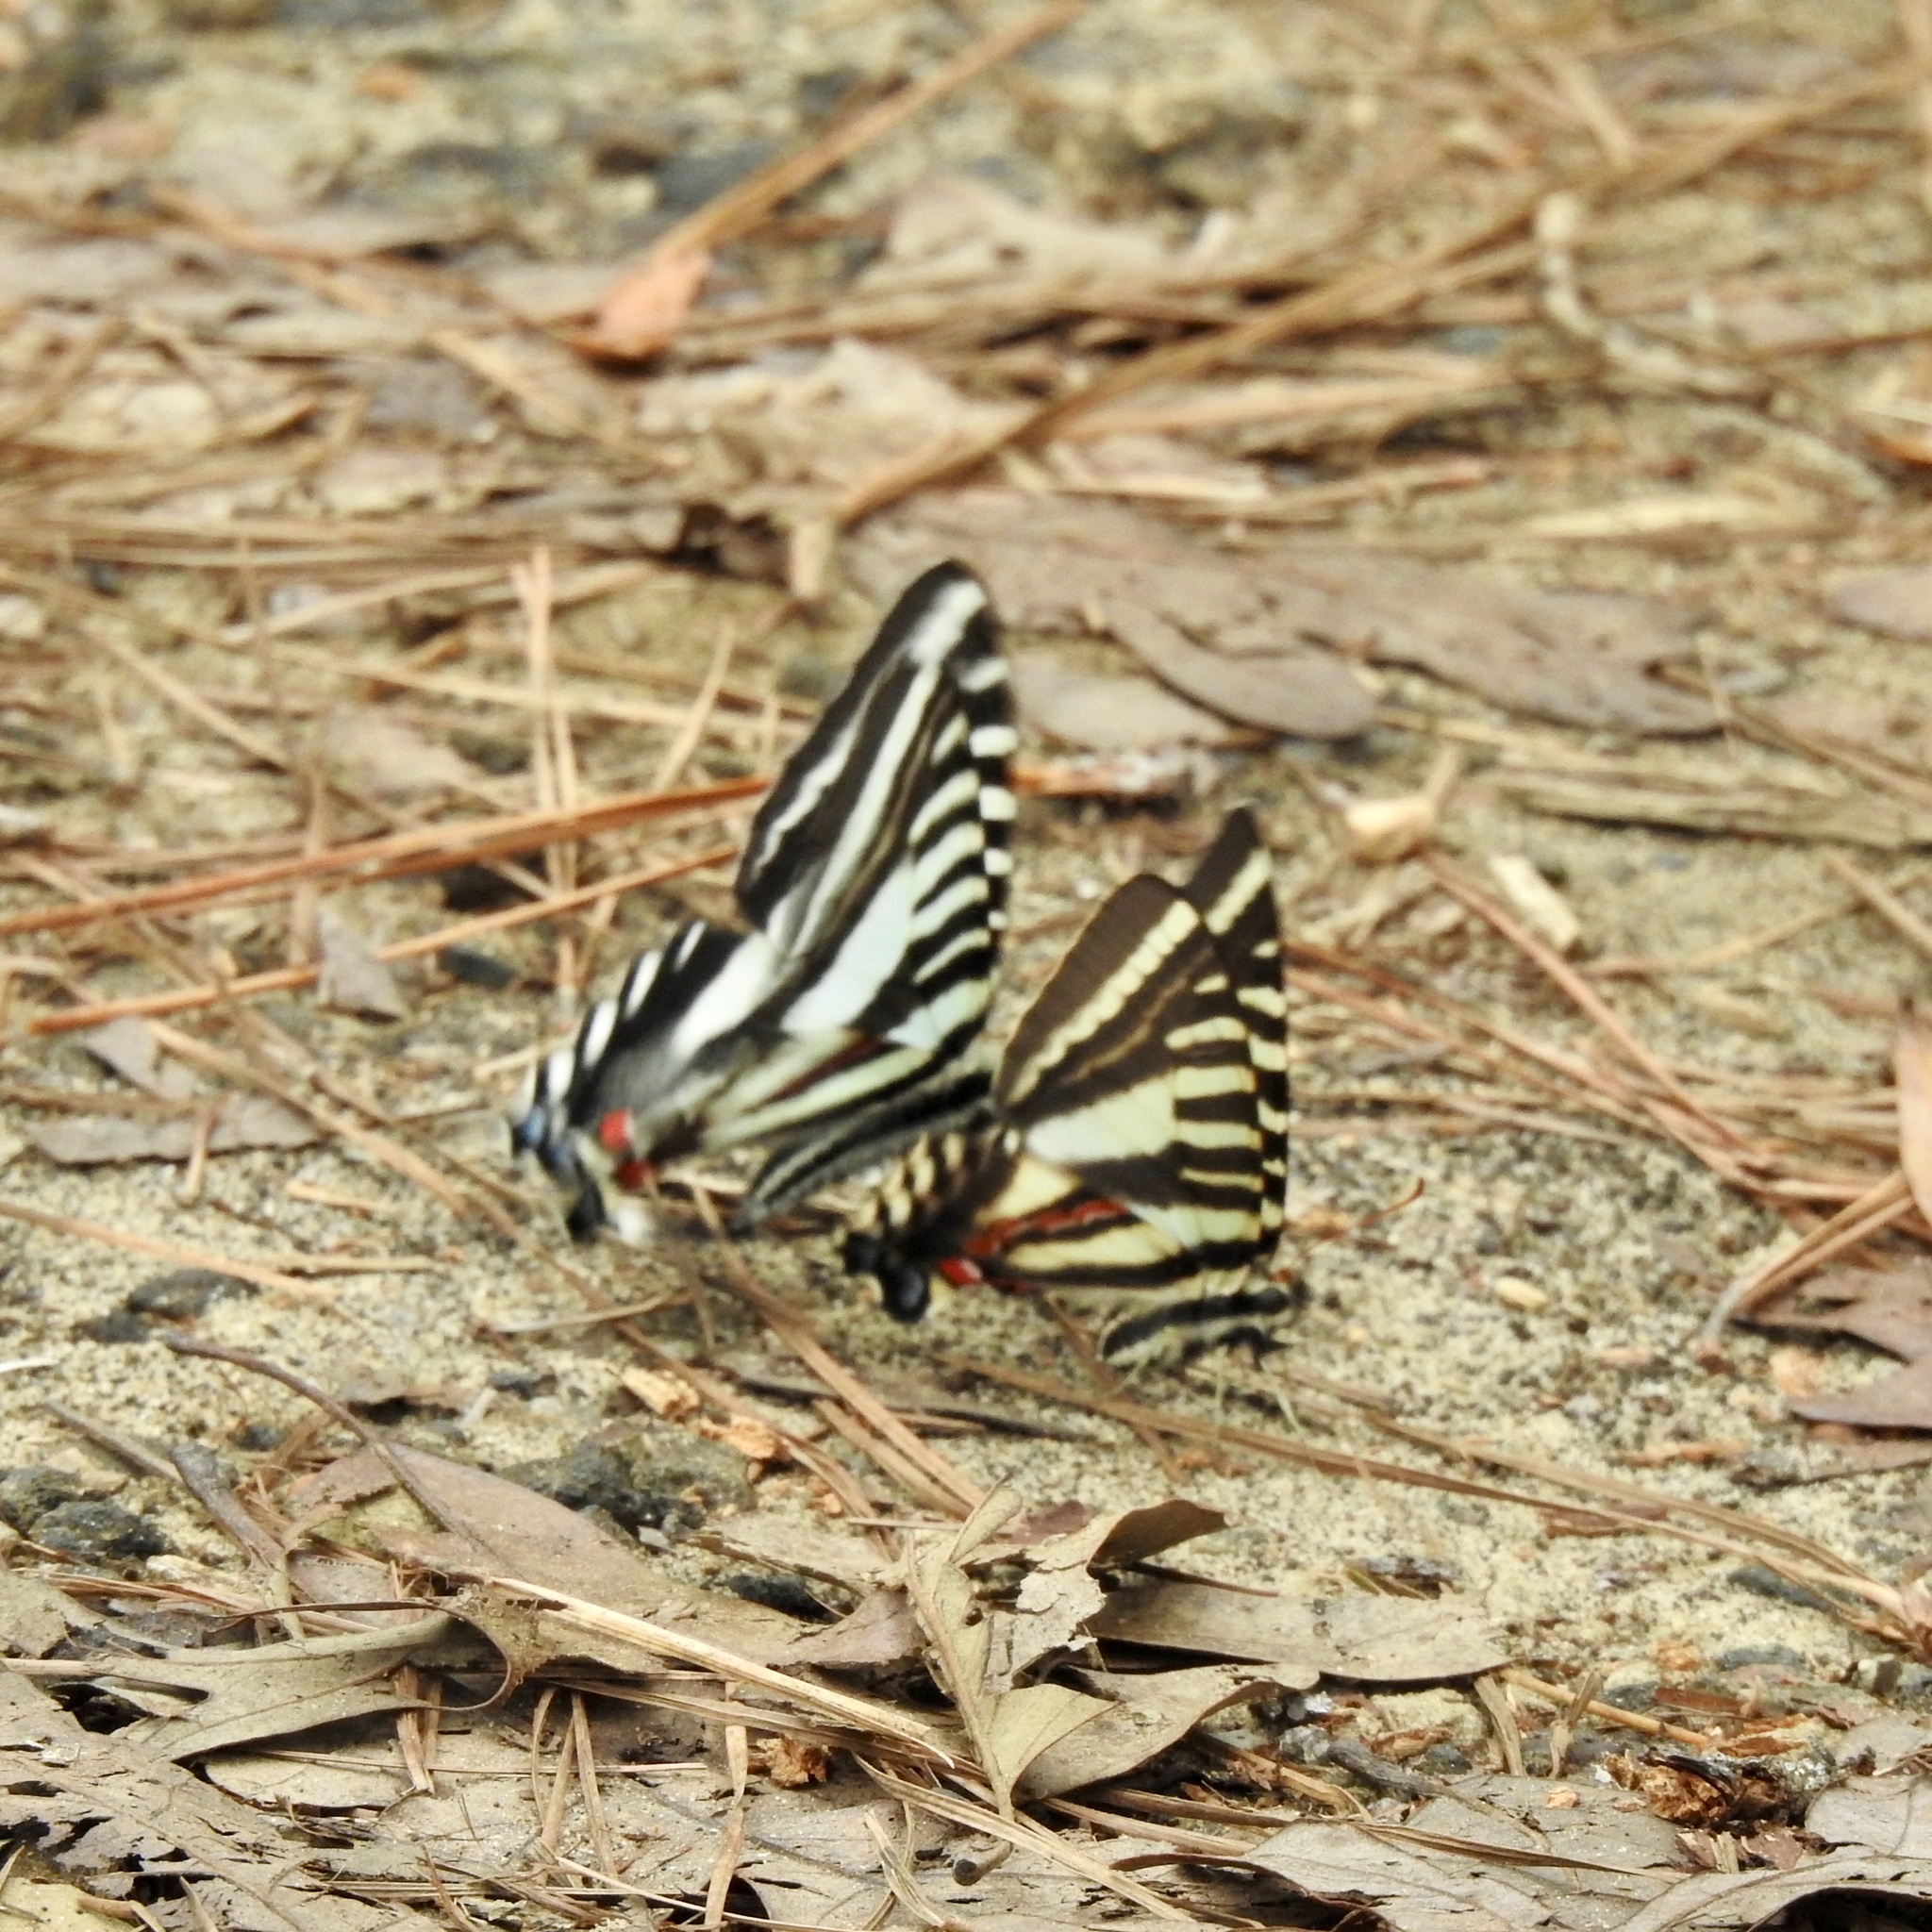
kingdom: Animalia
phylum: Arthropoda
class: Insecta
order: Lepidoptera
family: Papilionidae
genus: Protographium
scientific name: Protographium marcellus
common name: Zebra swallowtail
